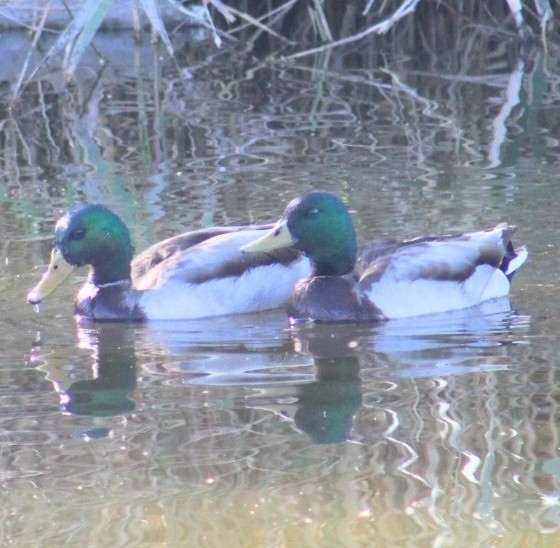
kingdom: Animalia
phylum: Chordata
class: Aves
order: Anseriformes
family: Anatidae
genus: Anas
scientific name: Anas platyrhynchos
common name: Mallard
